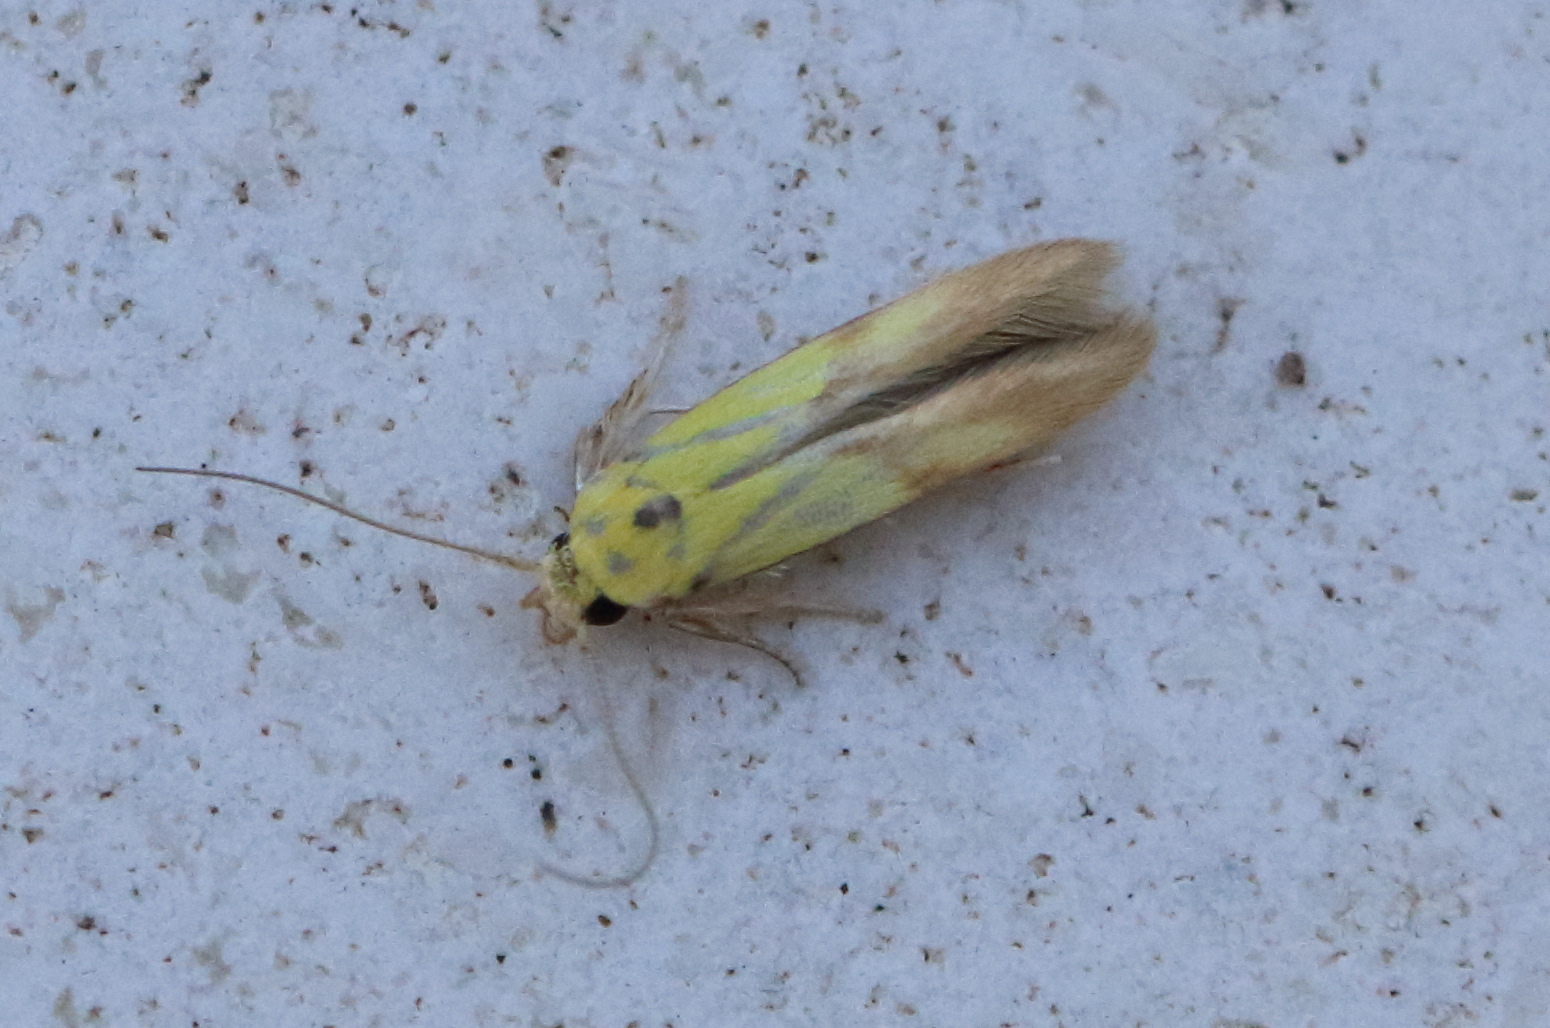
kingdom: Animalia
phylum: Arthropoda
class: Insecta
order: Lepidoptera
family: Stathmopodidae
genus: Stathmopoda
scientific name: Stathmopoda auriferella
